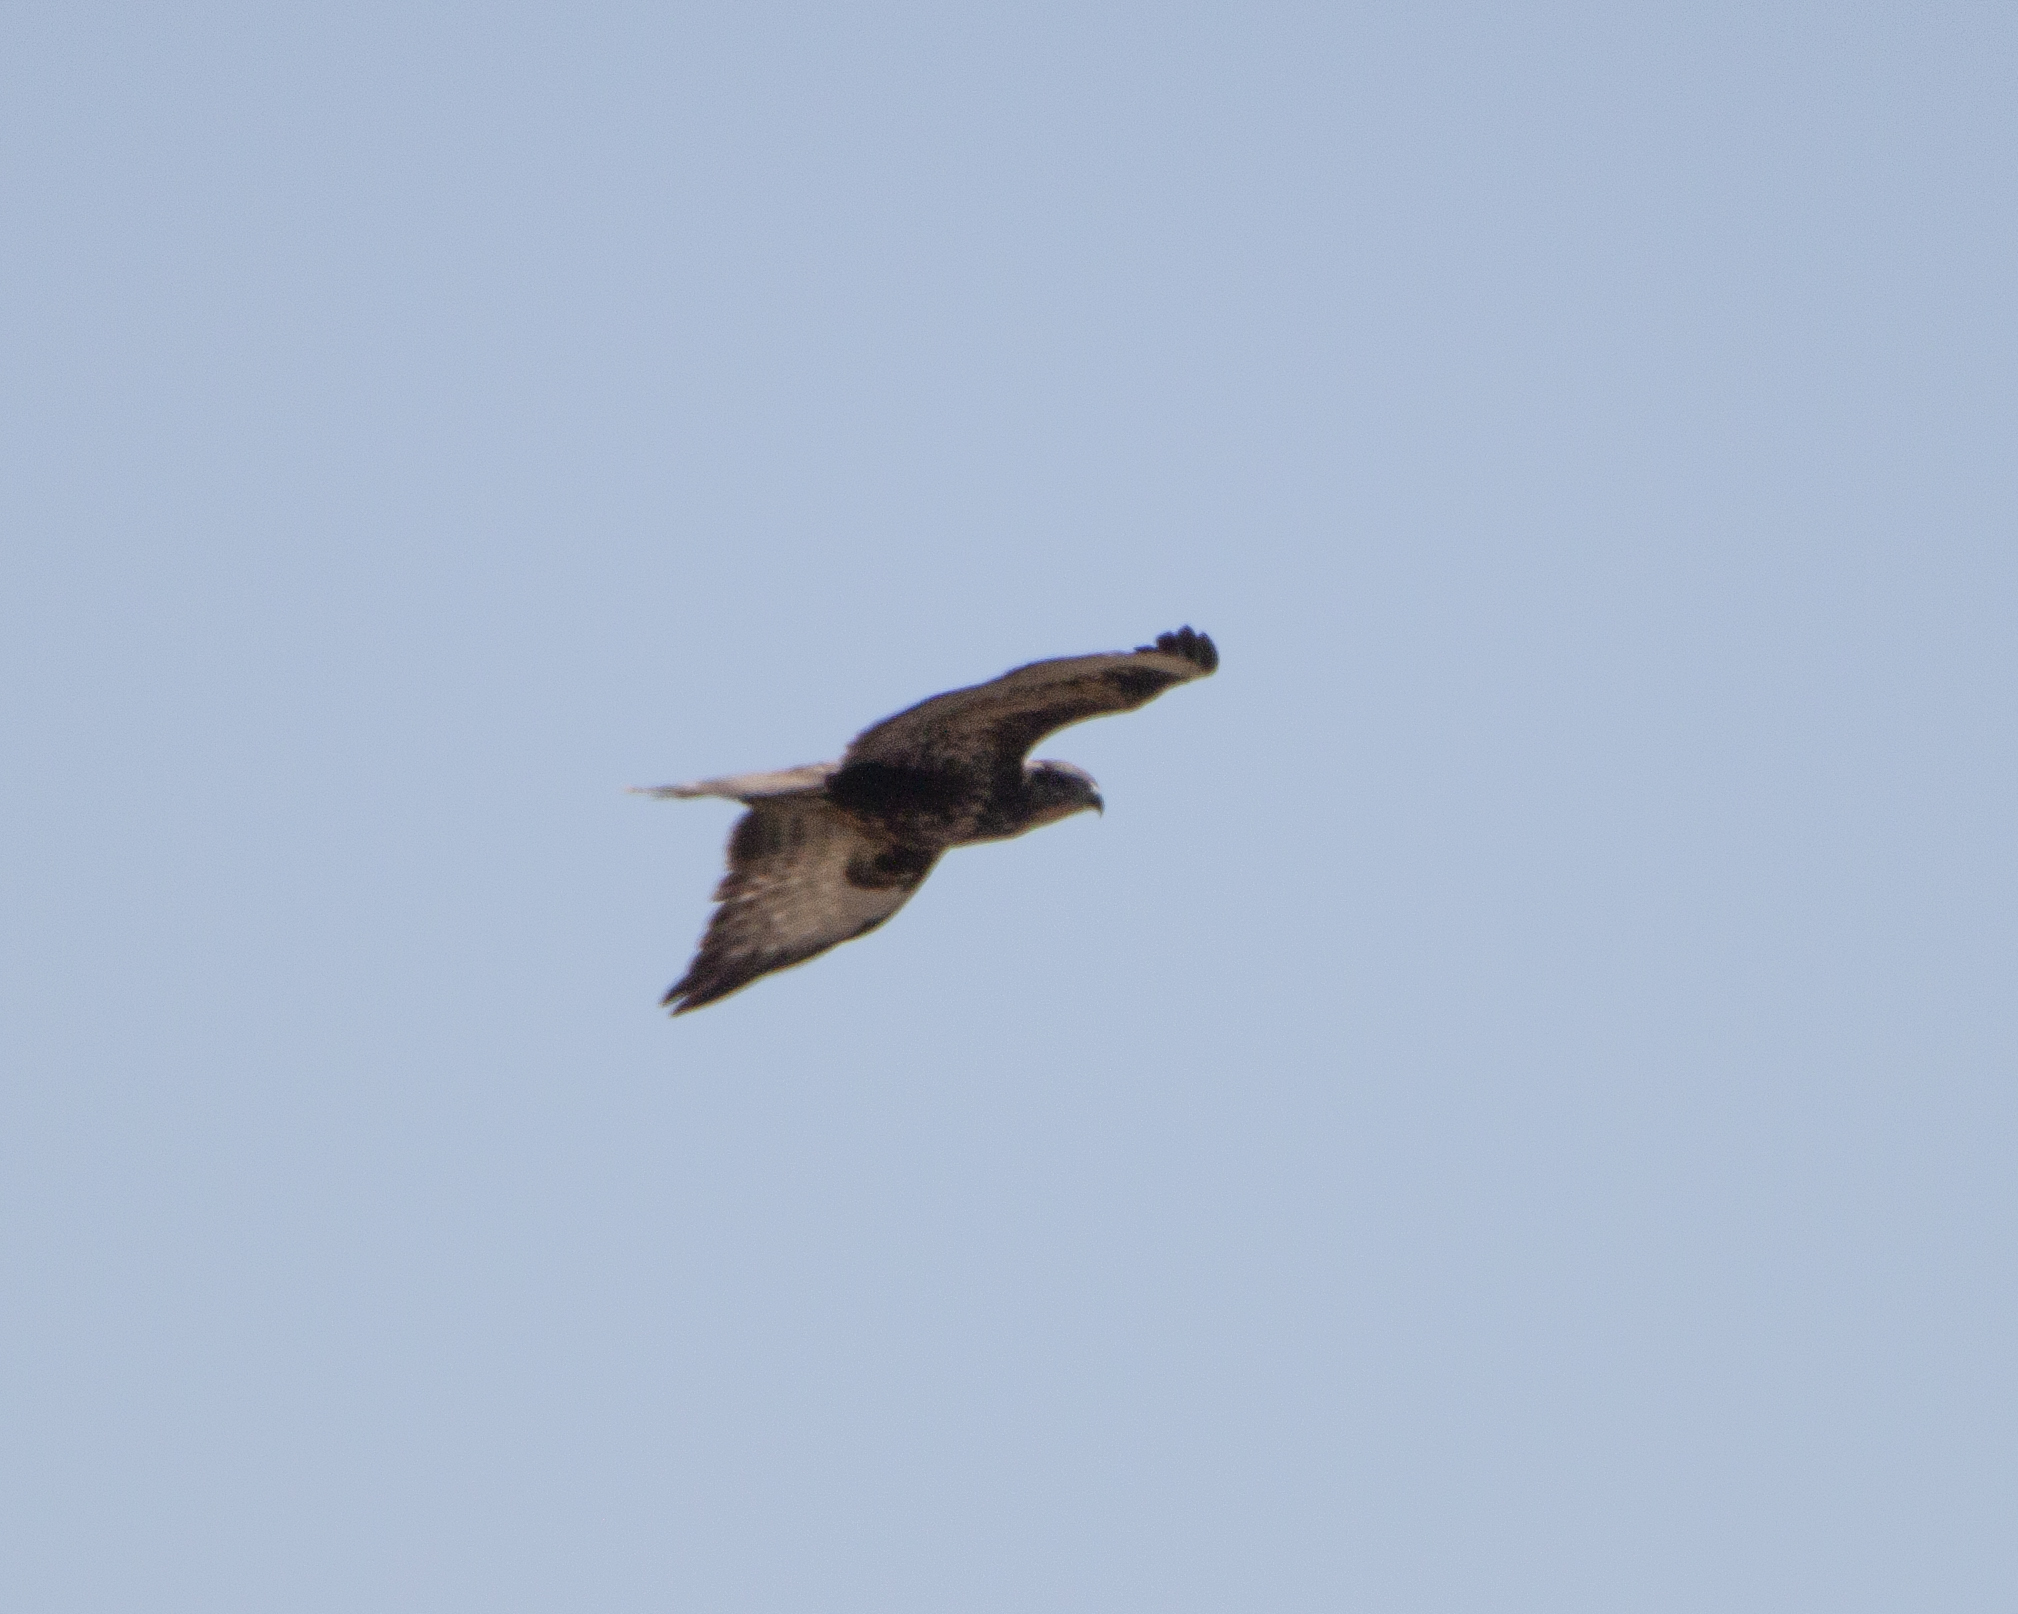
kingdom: Animalia
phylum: Chordata
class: Aves
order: Accipitriformes
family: Accipitridae
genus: Buteo
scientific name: Buteo buteo
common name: Common buzzard
